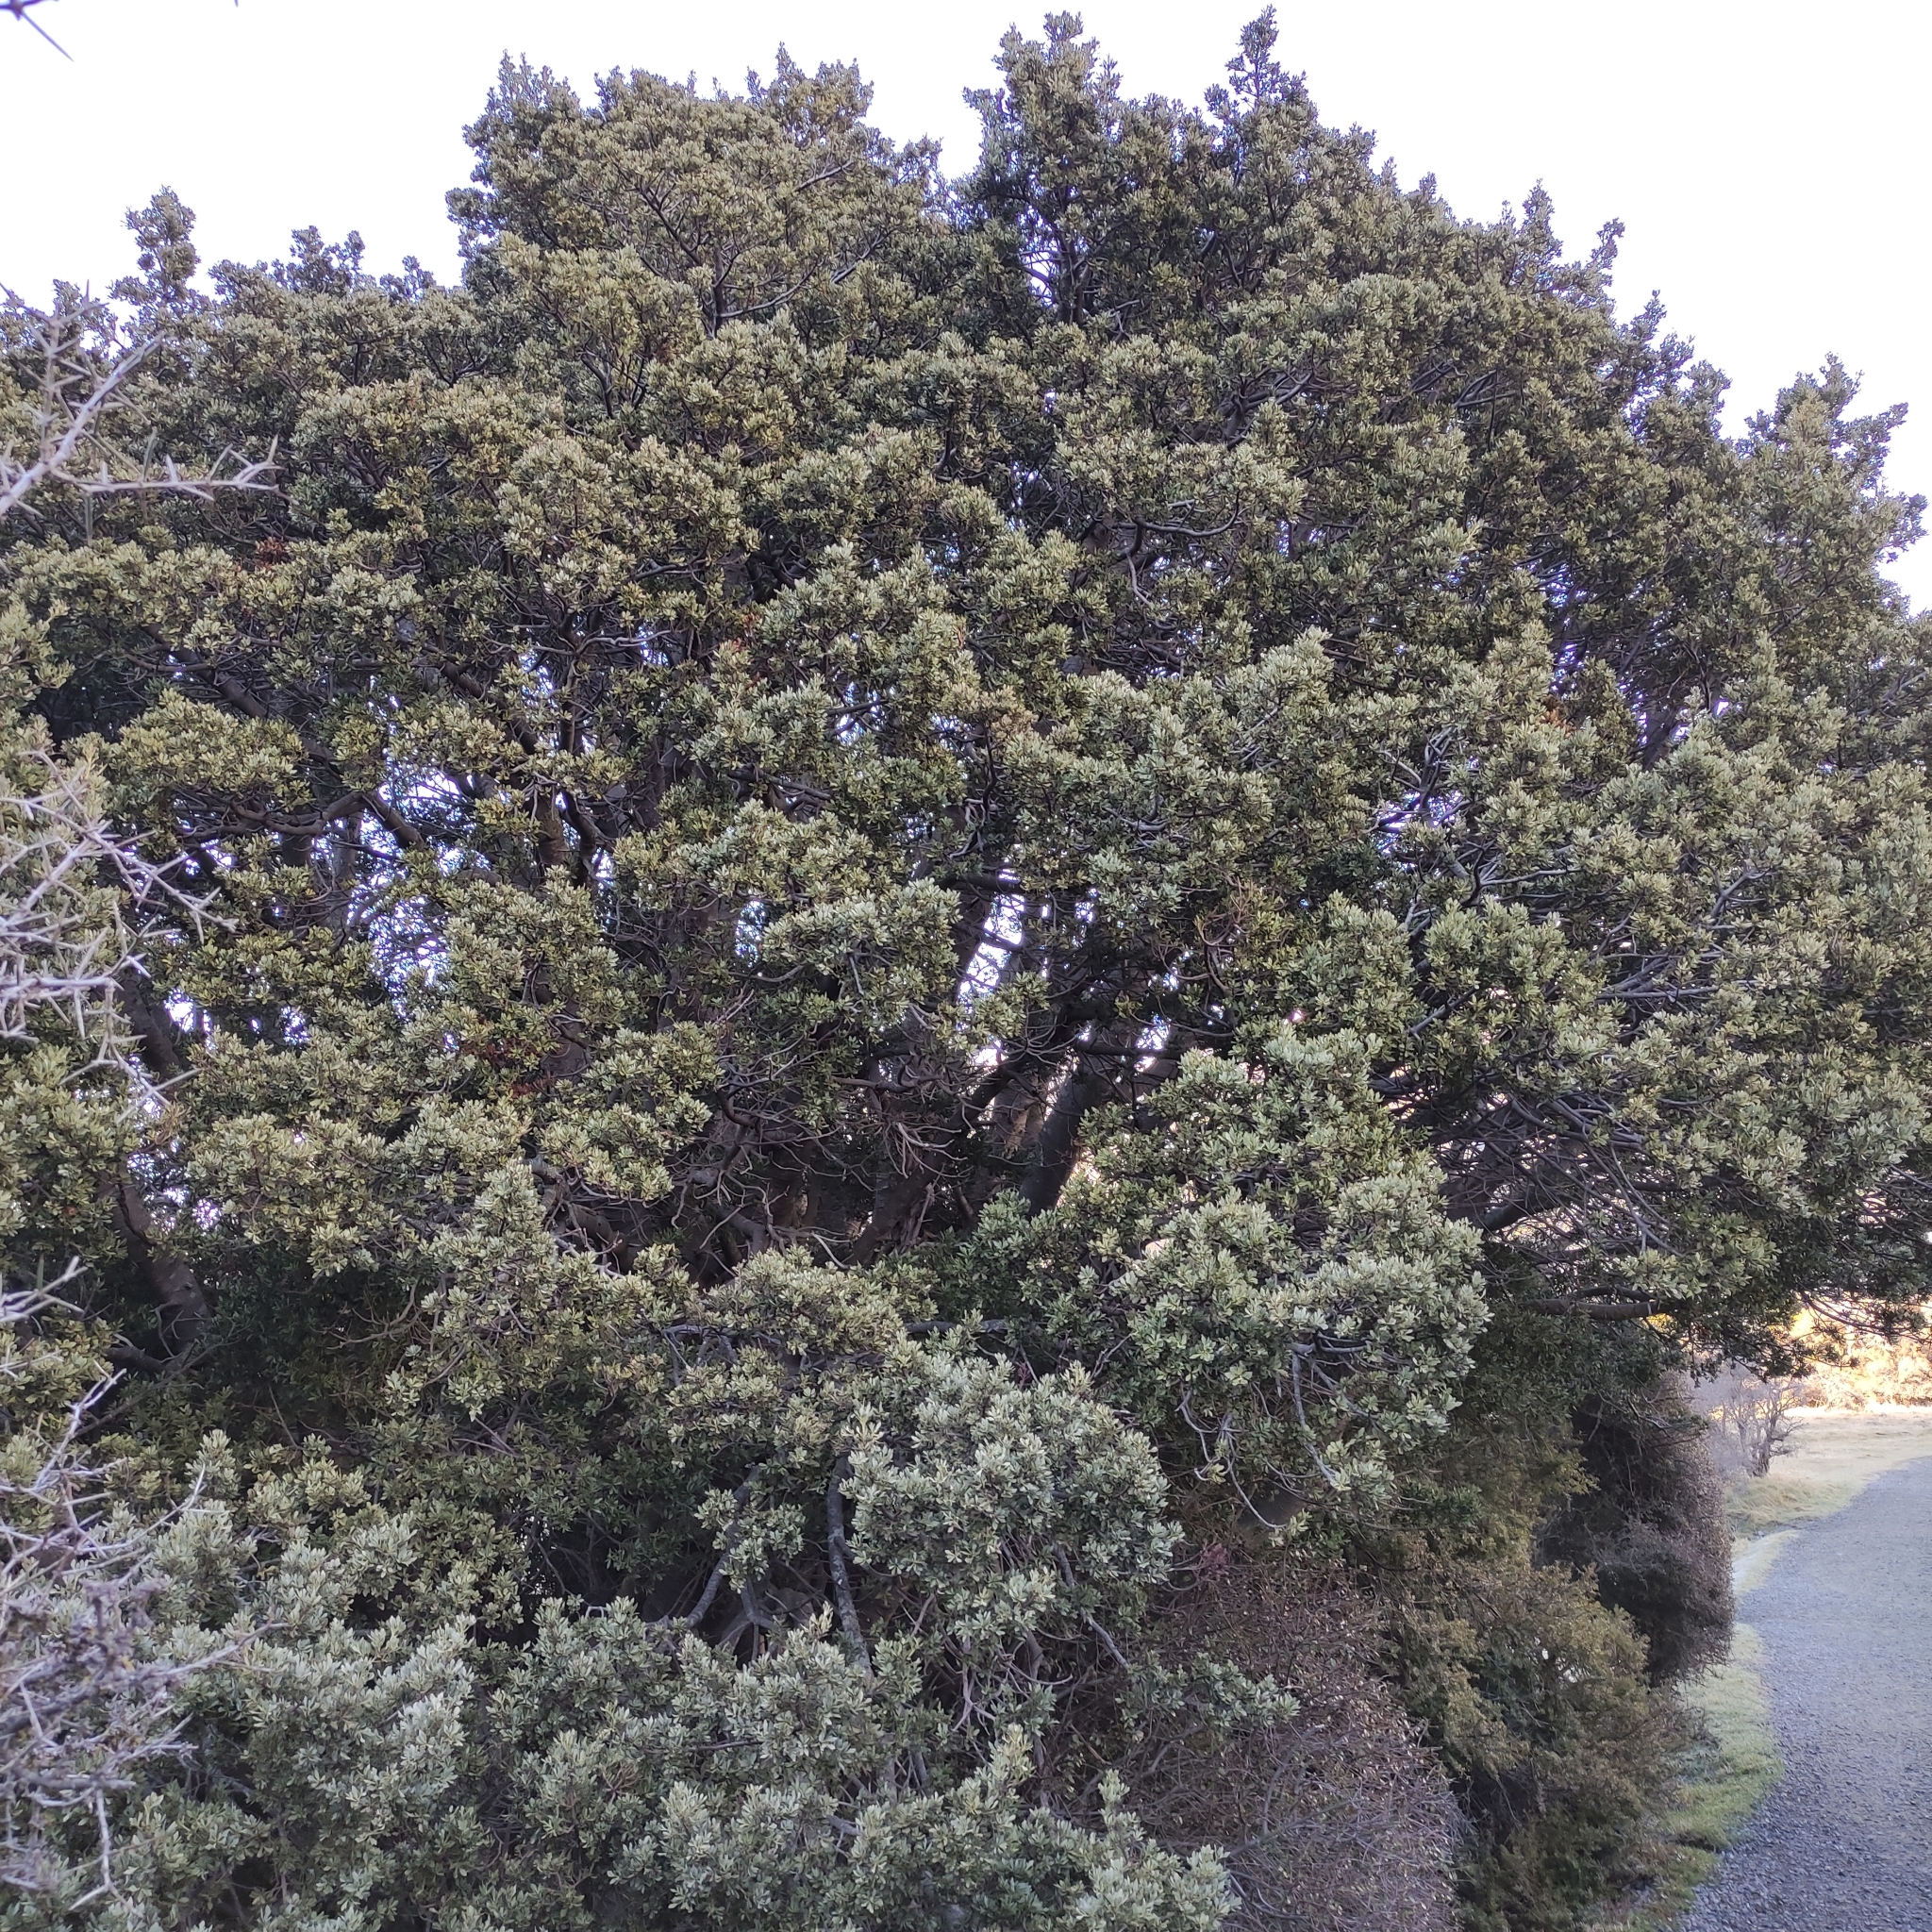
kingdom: Plantae
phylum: Tracheophyta
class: Pinopsida
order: Pinales
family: Phyllocladaceae
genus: Phyllocladus
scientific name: Phyllocladus trichomanoides
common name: Celery pine
